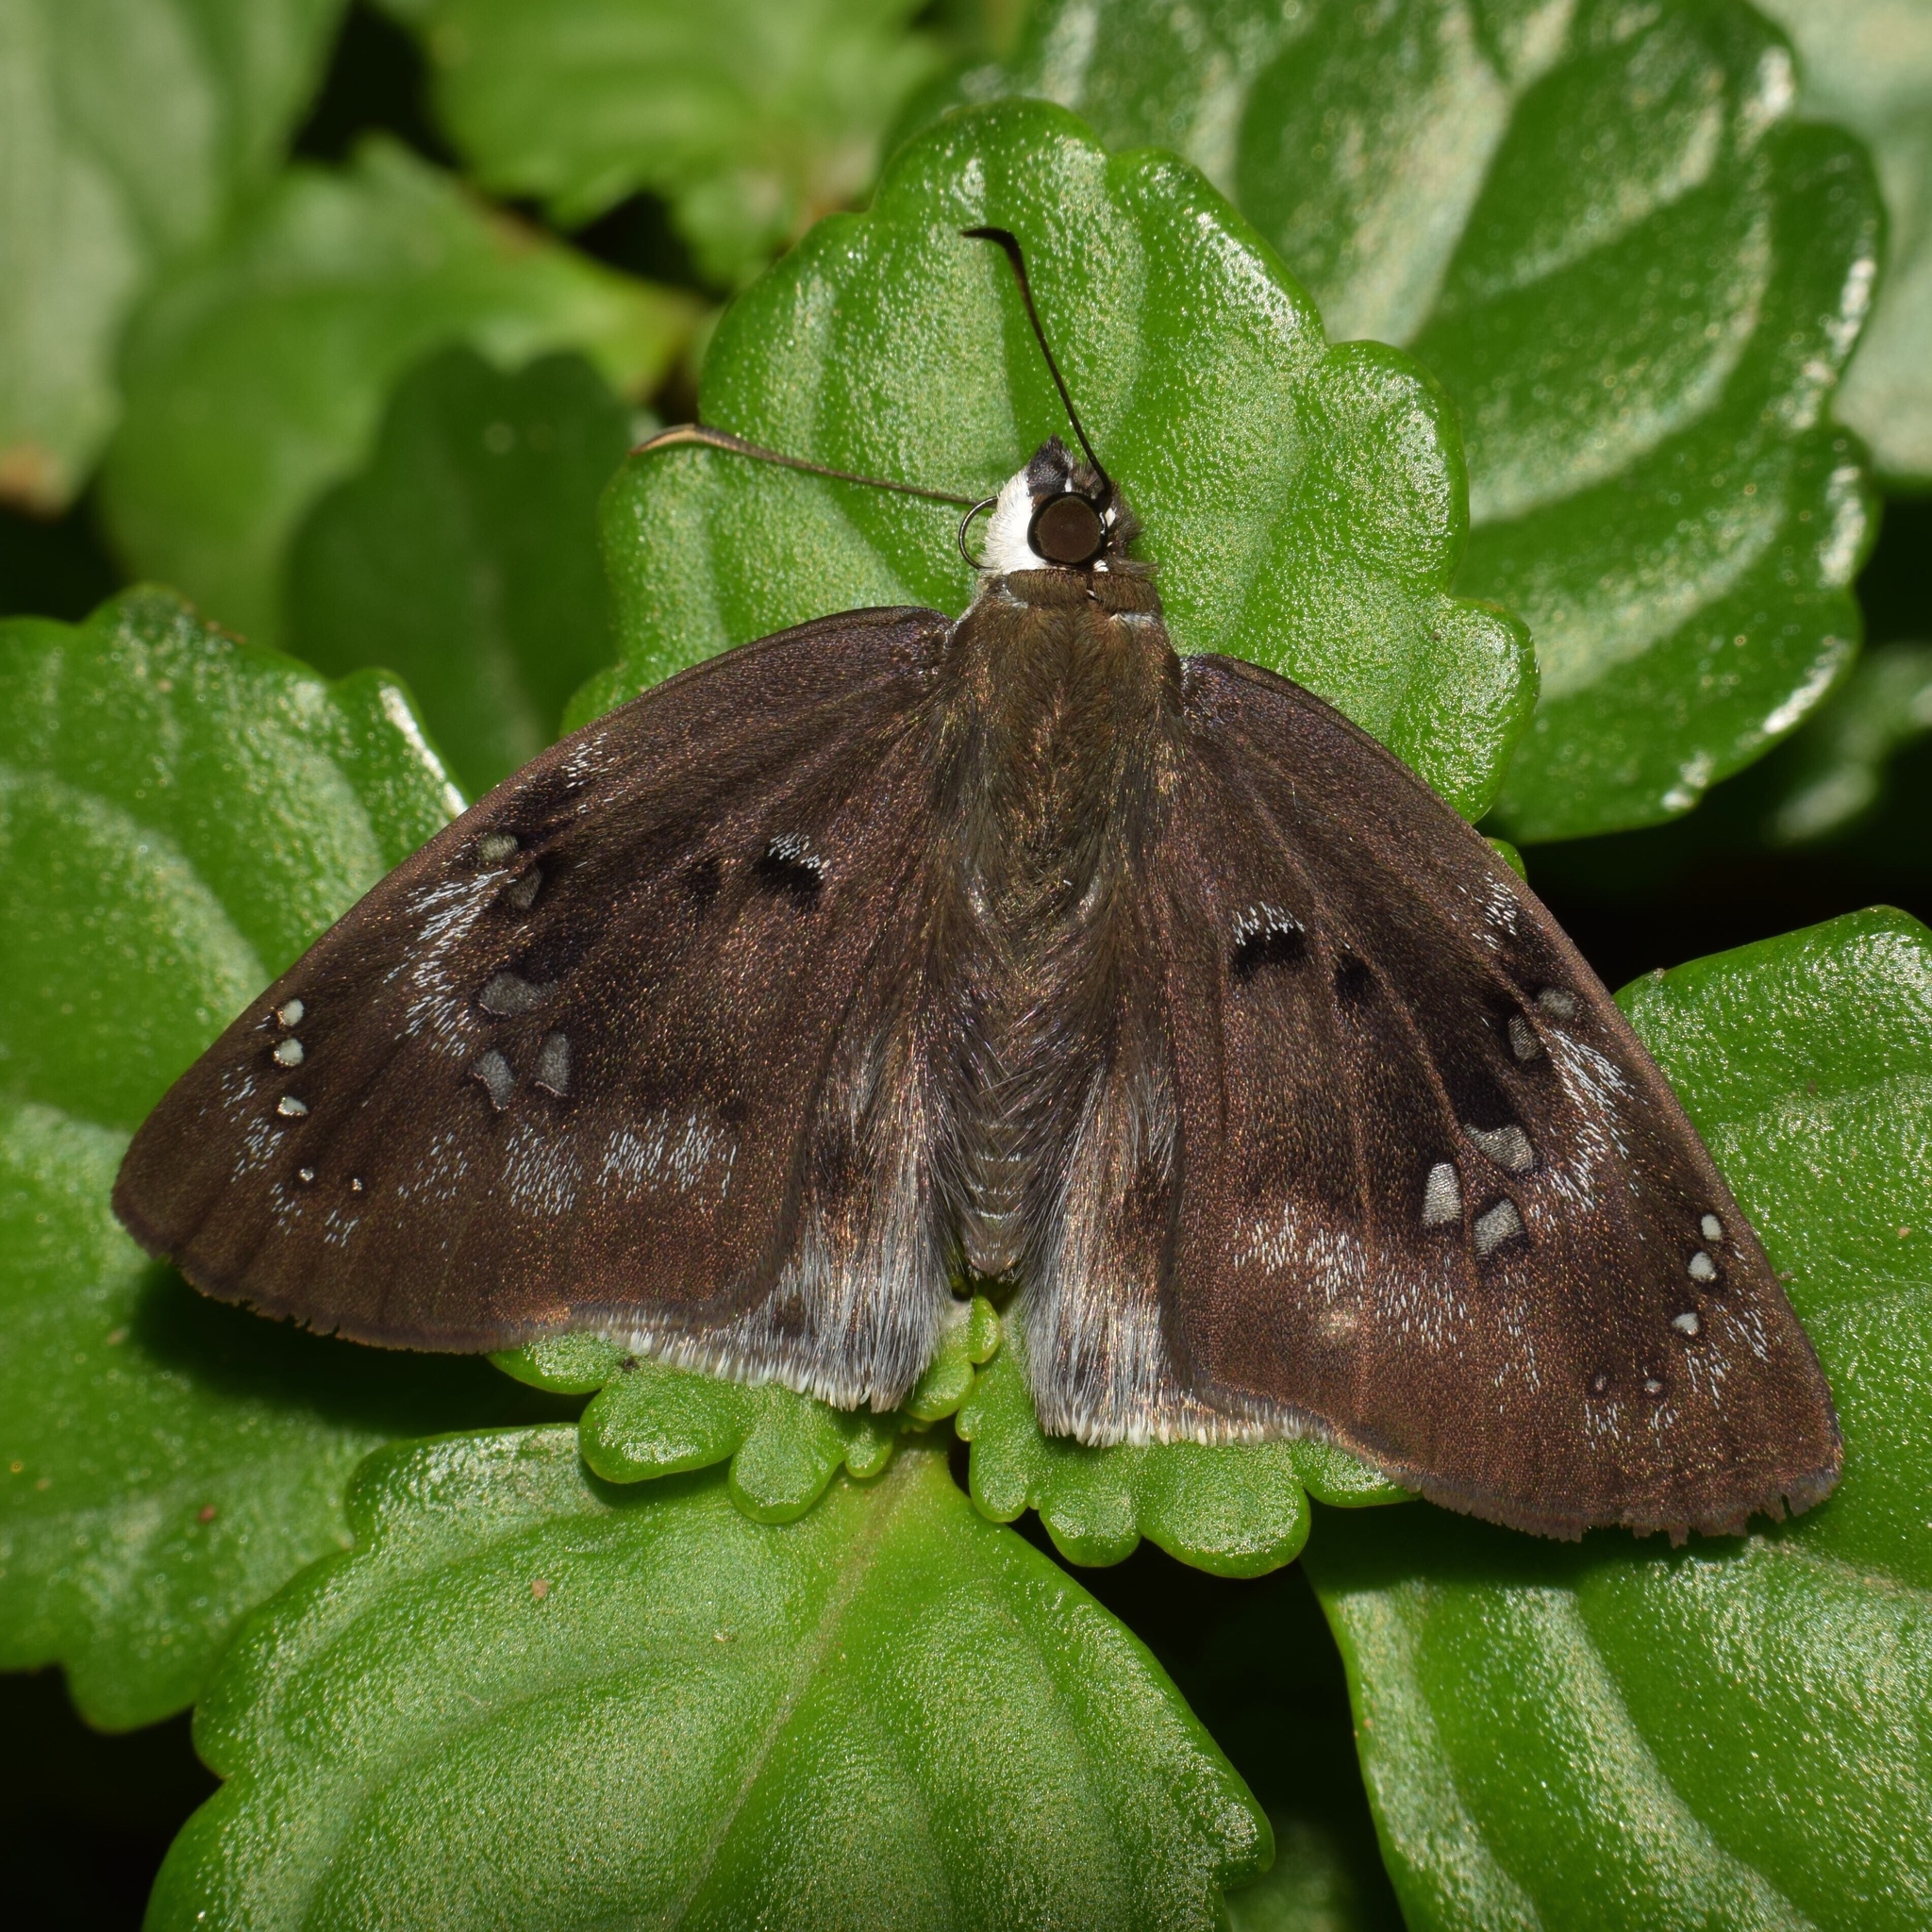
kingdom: Animalia
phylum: Arthropoda
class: Insecta
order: Lepidoptera
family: Hesperiidae
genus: Tagiades
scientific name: Tagiades flesus
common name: Clouded flat
